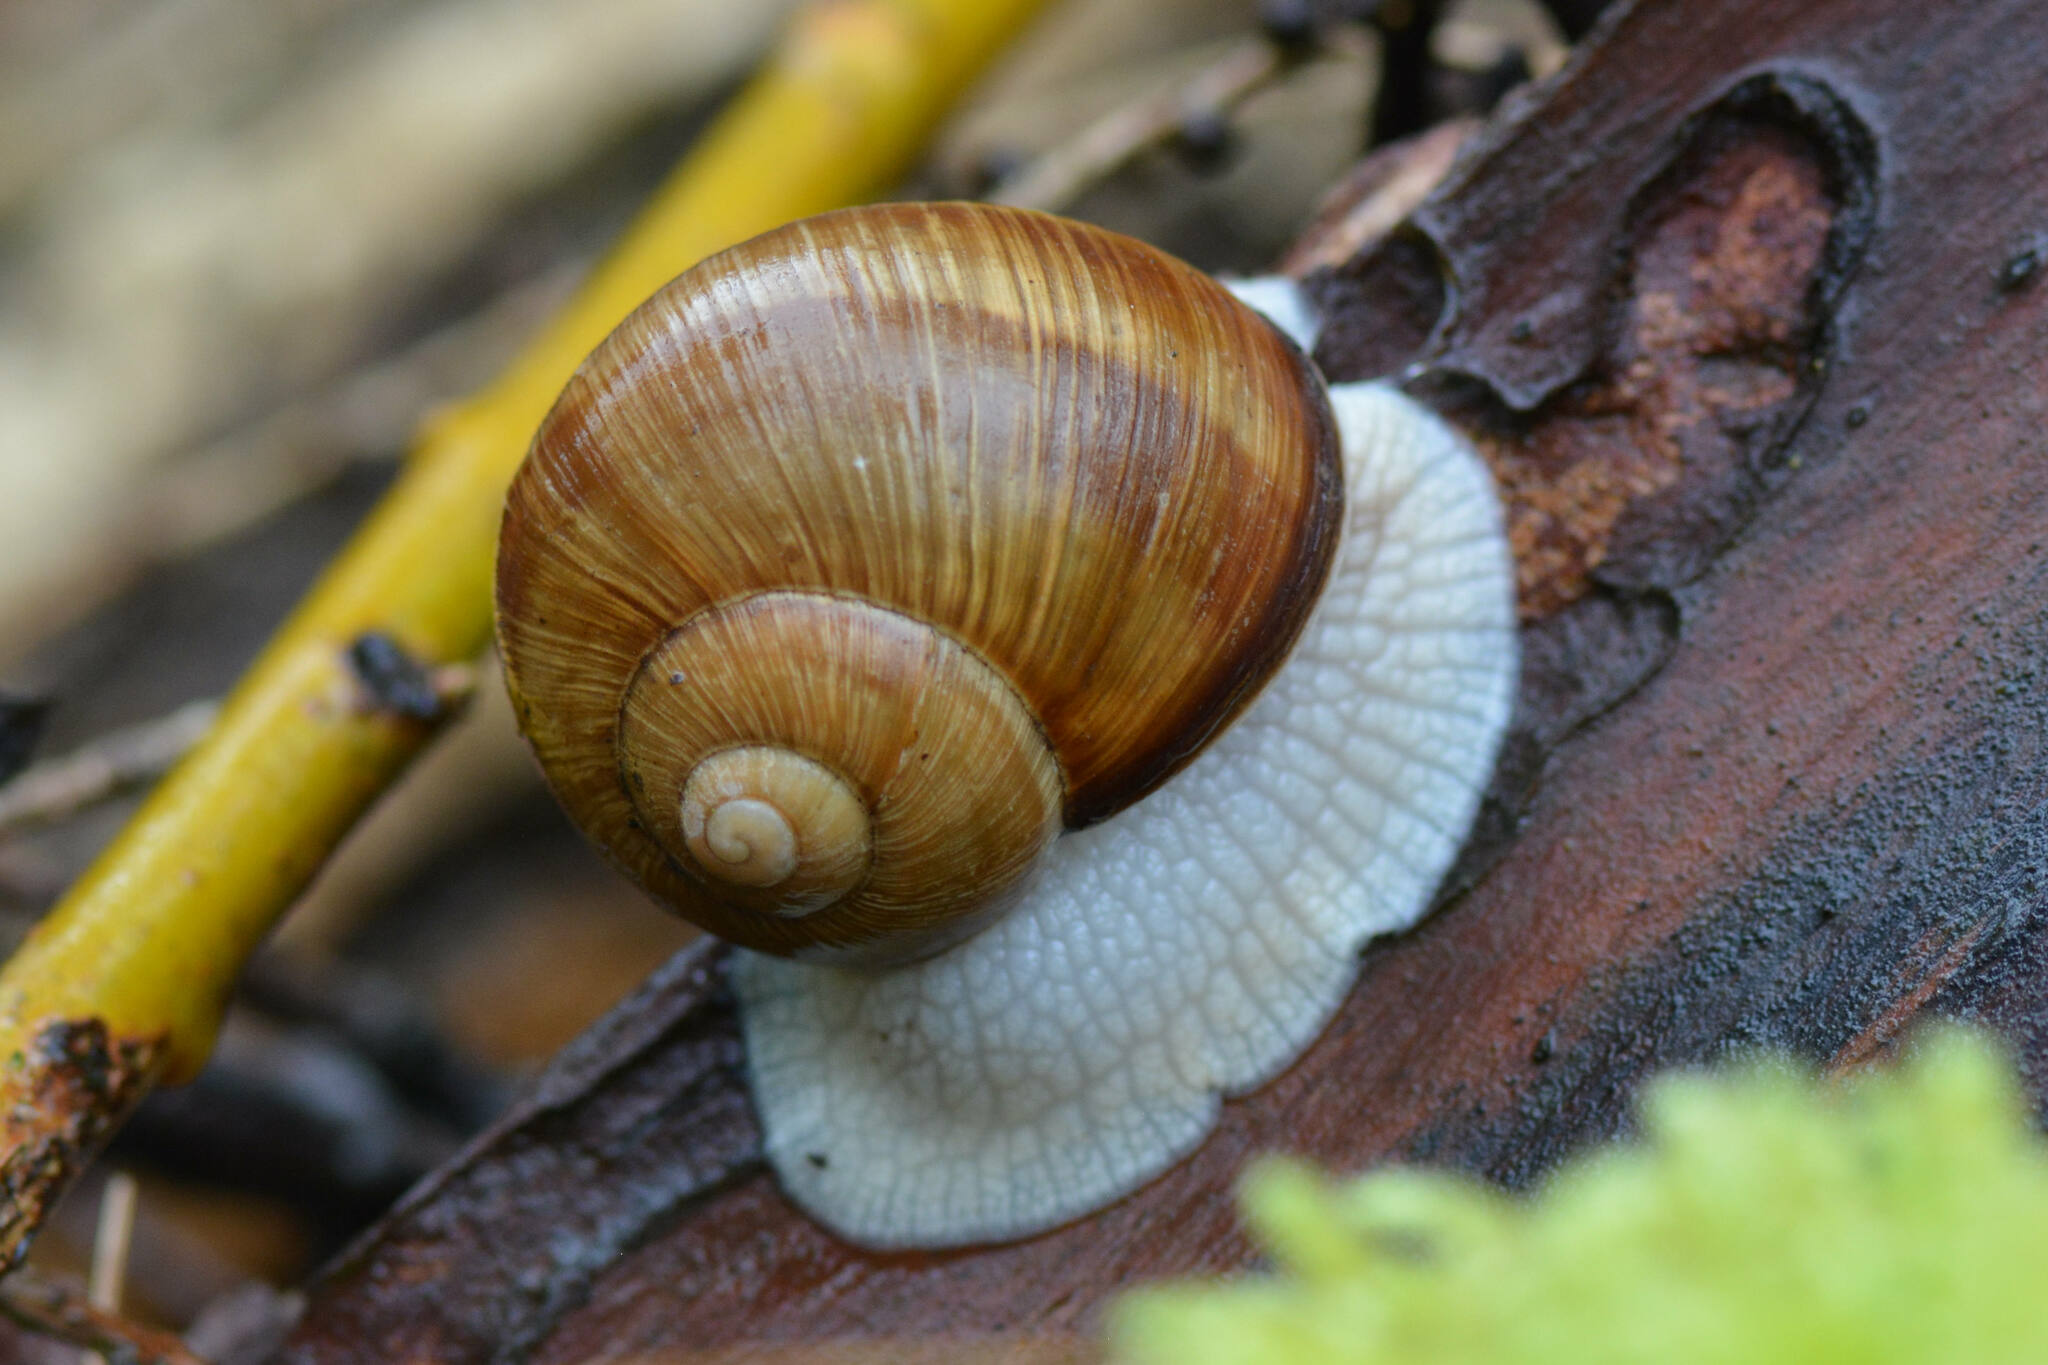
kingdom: Animalia
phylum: Mollusca
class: Gastropoda
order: Stylommatophora
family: Helicidae
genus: Helix
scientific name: Helix pomatia
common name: Roman snail
